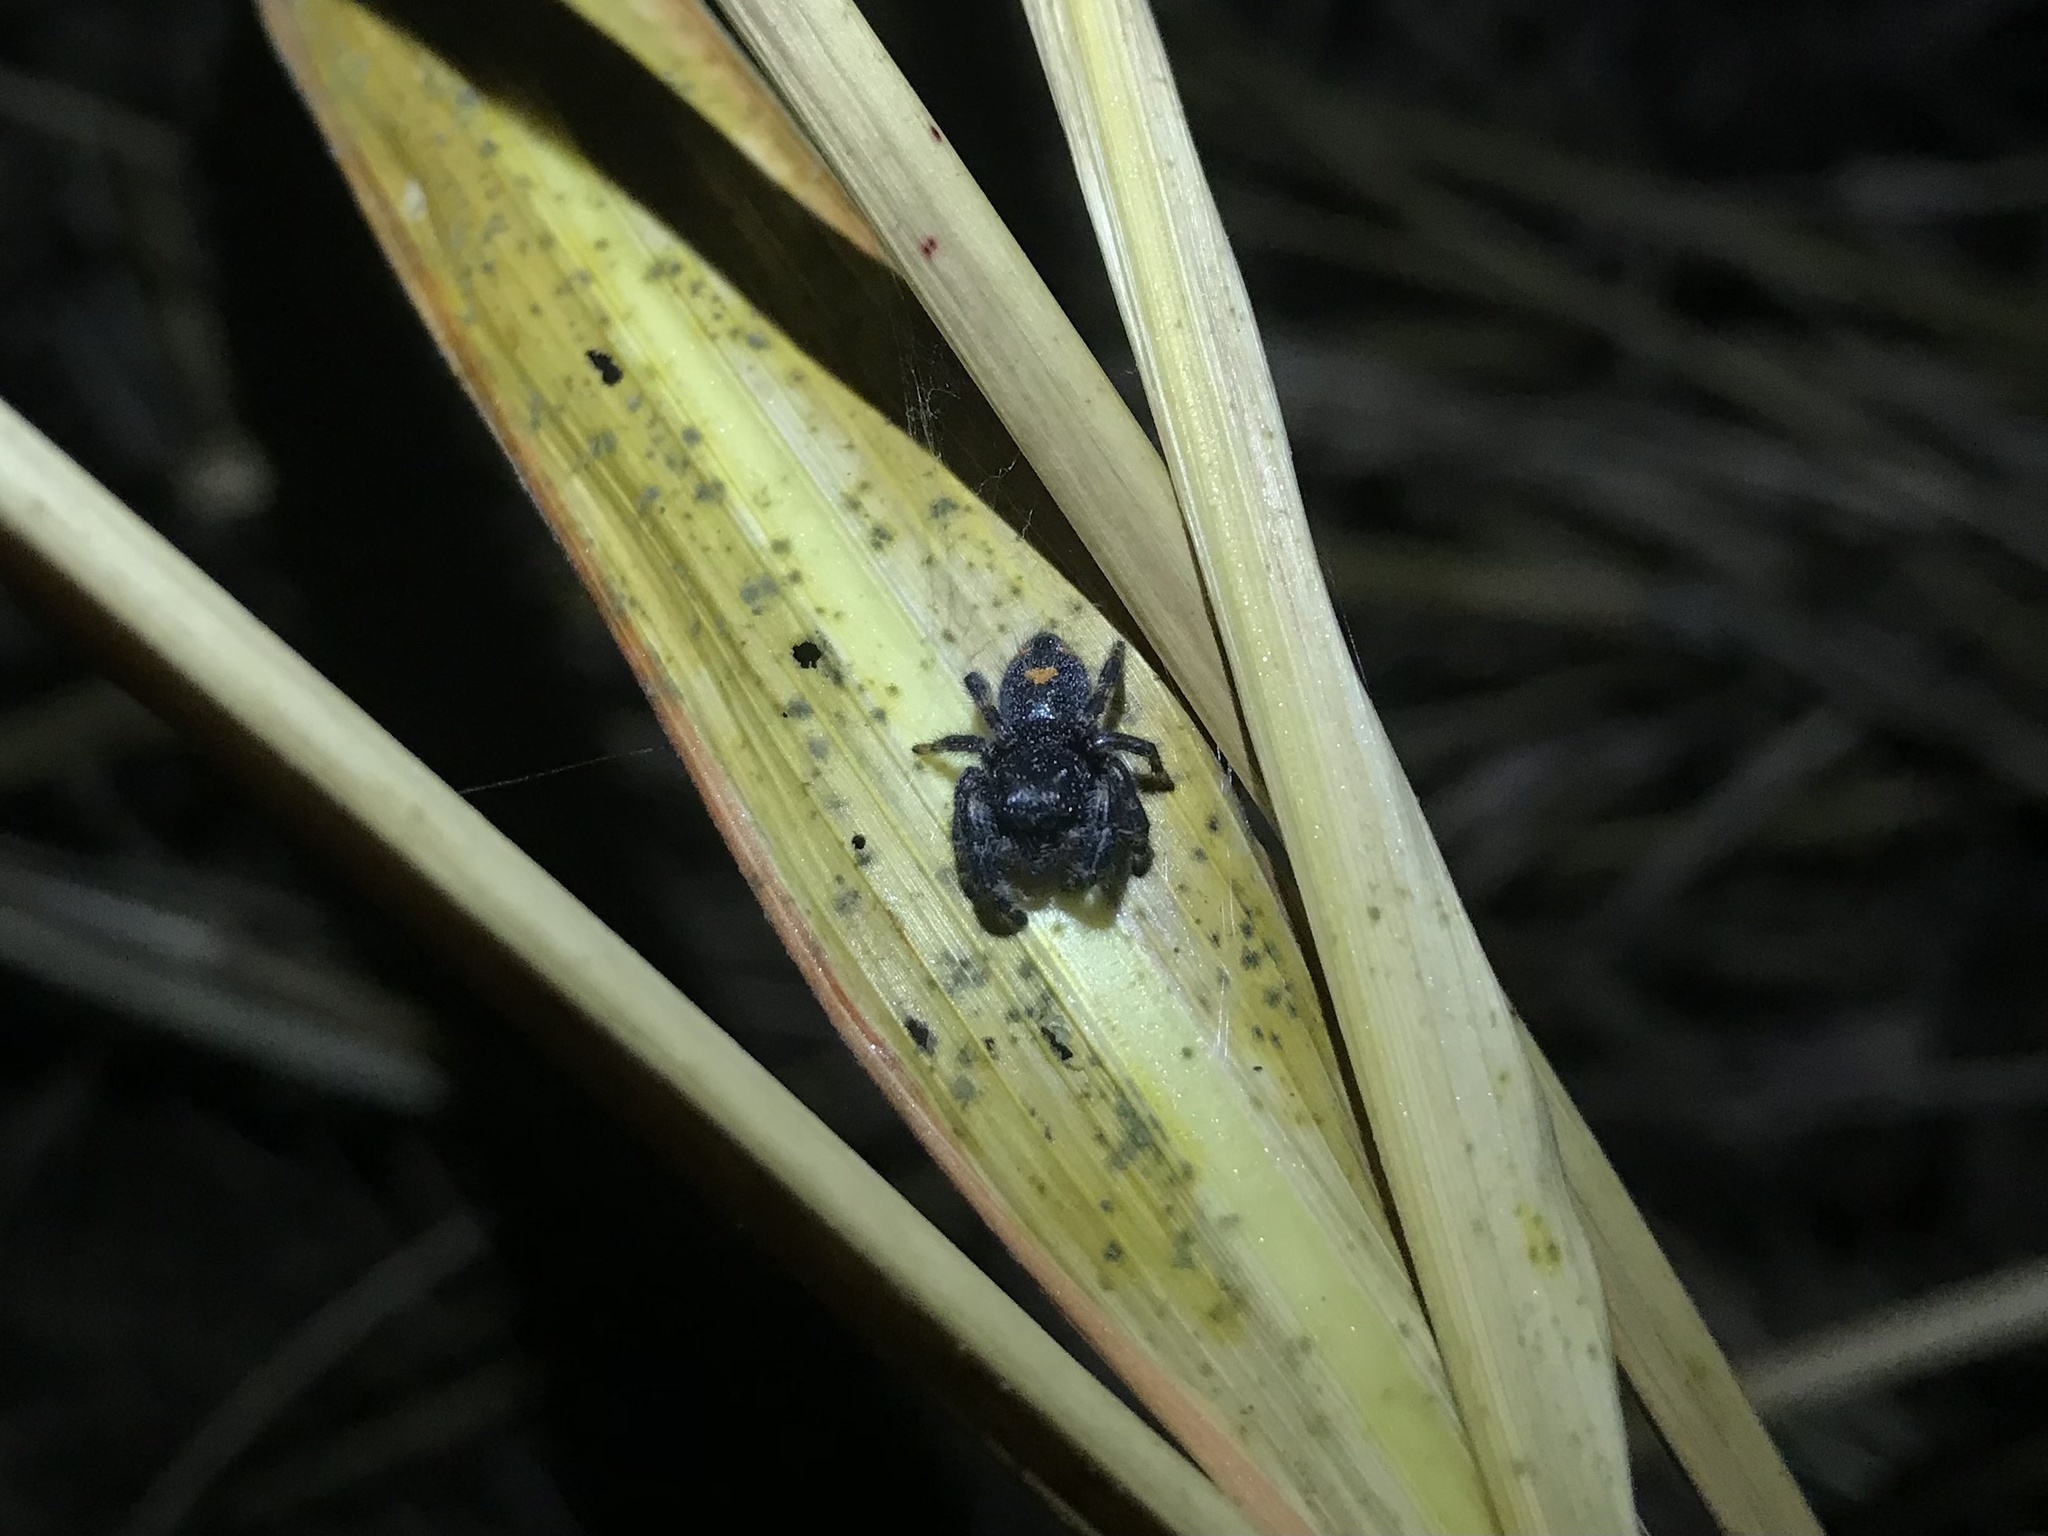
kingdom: Animalia
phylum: Arthropoda
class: Arachnida
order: Araneae
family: Salticidae
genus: Phidippus
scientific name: Phidippus audax
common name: Bold jumper
